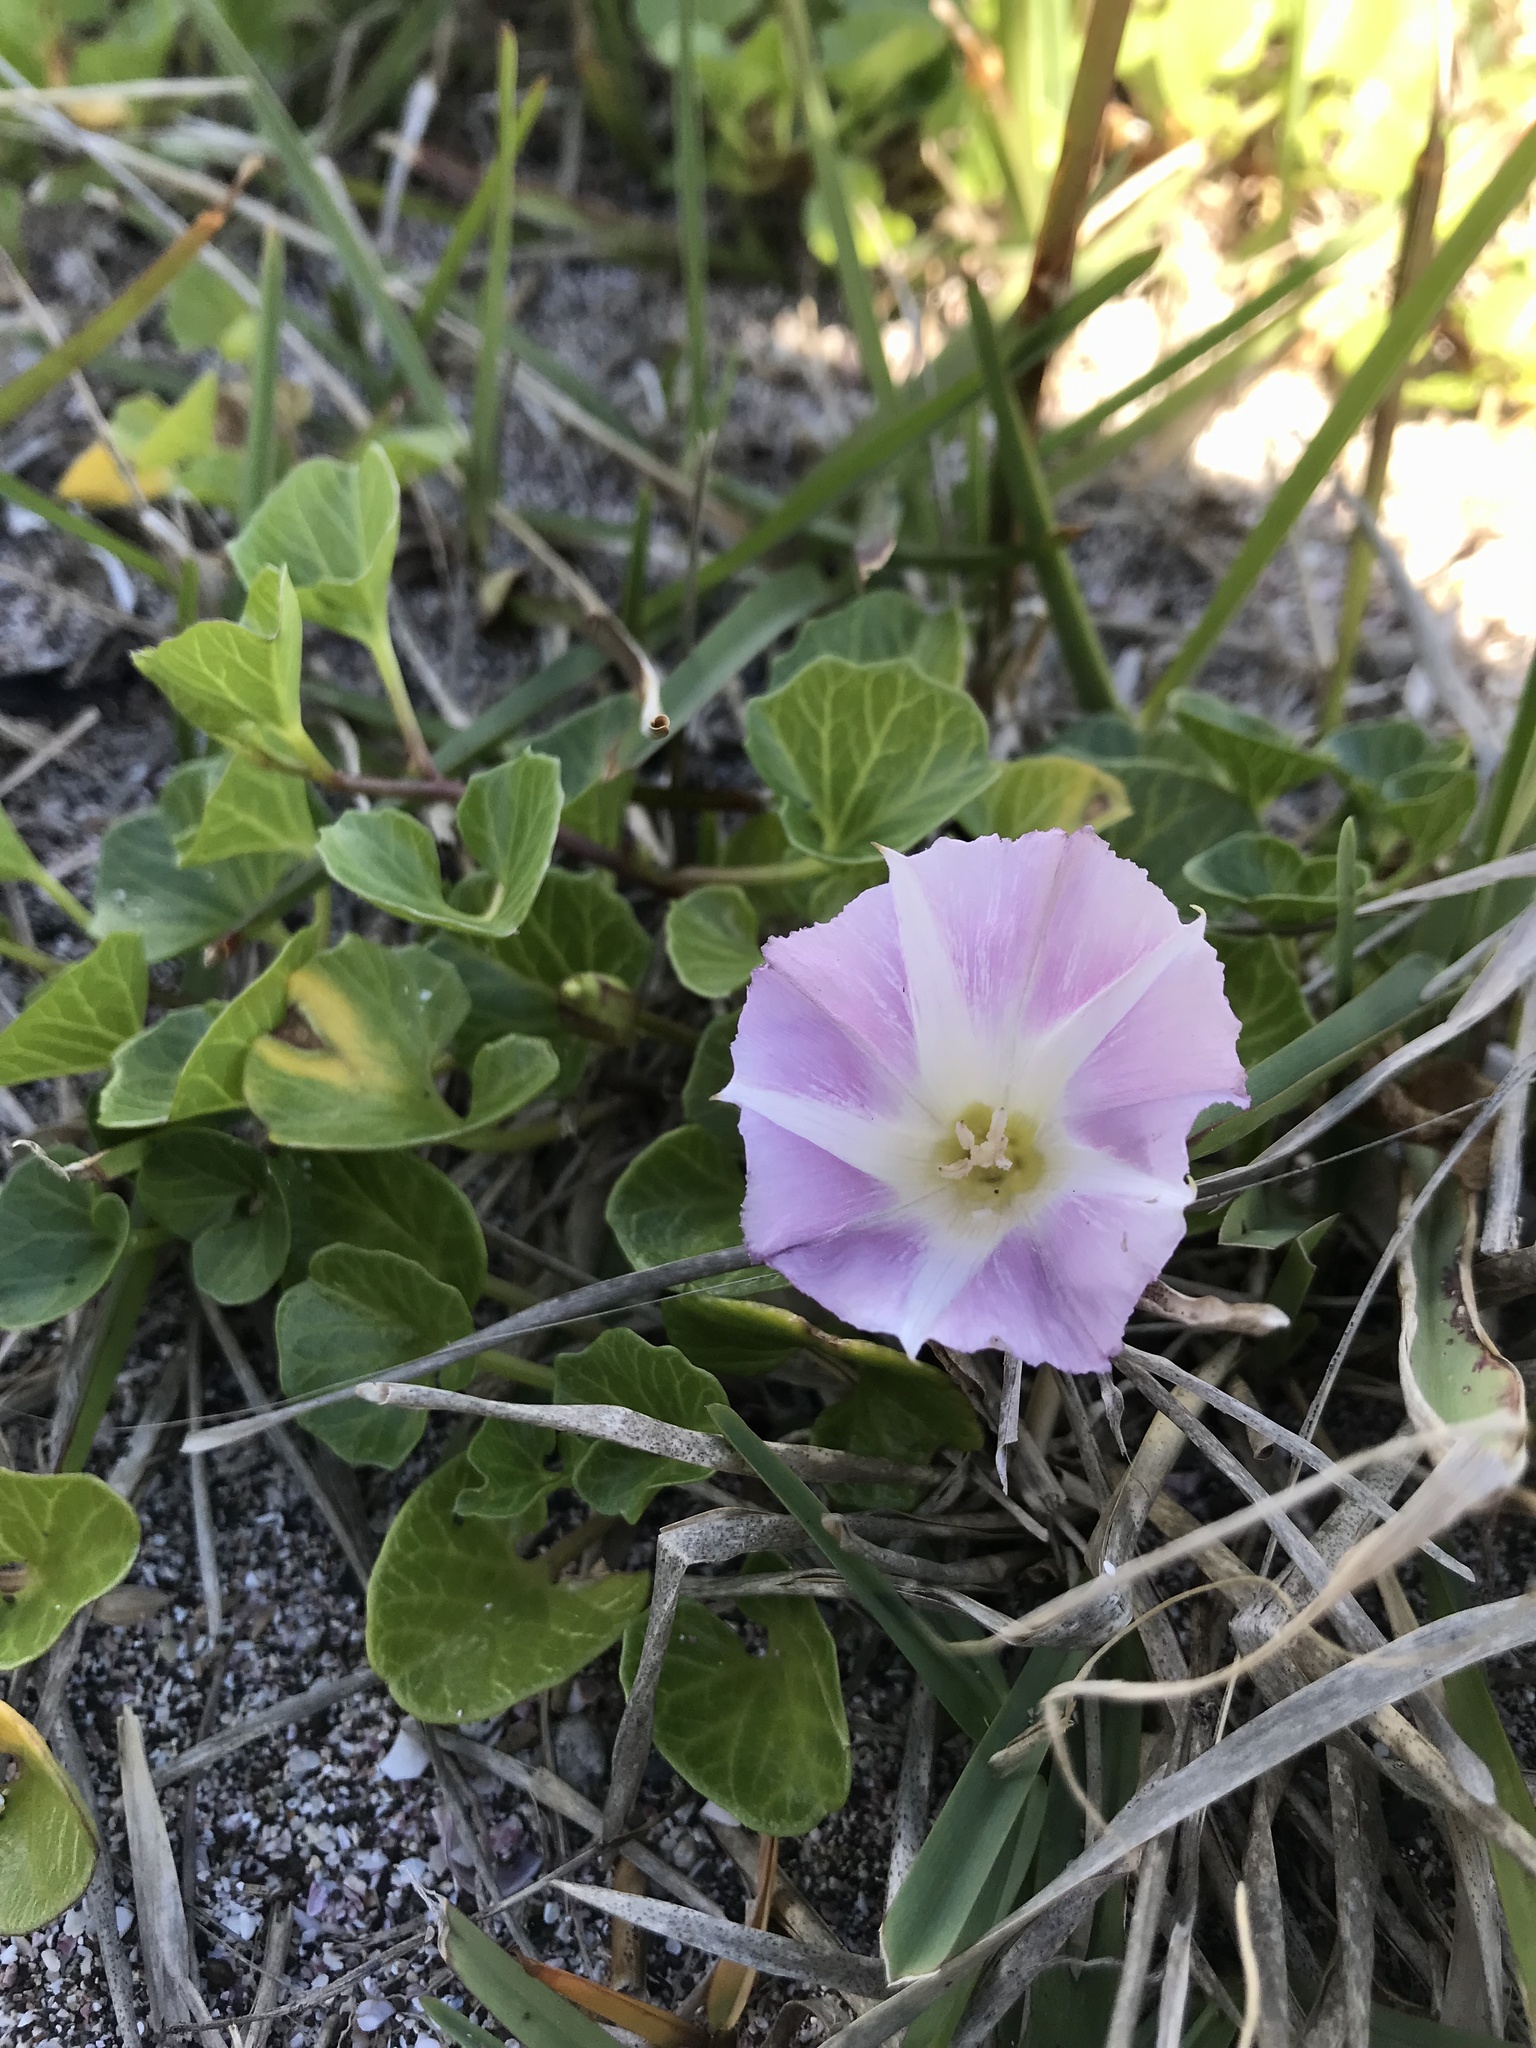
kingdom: Plantae
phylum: Tracheophyta
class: Magnoliopsida
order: Solanales
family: Convolvulaceae
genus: Calystegia
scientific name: Calystegia soldanella
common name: Sea bindweed
